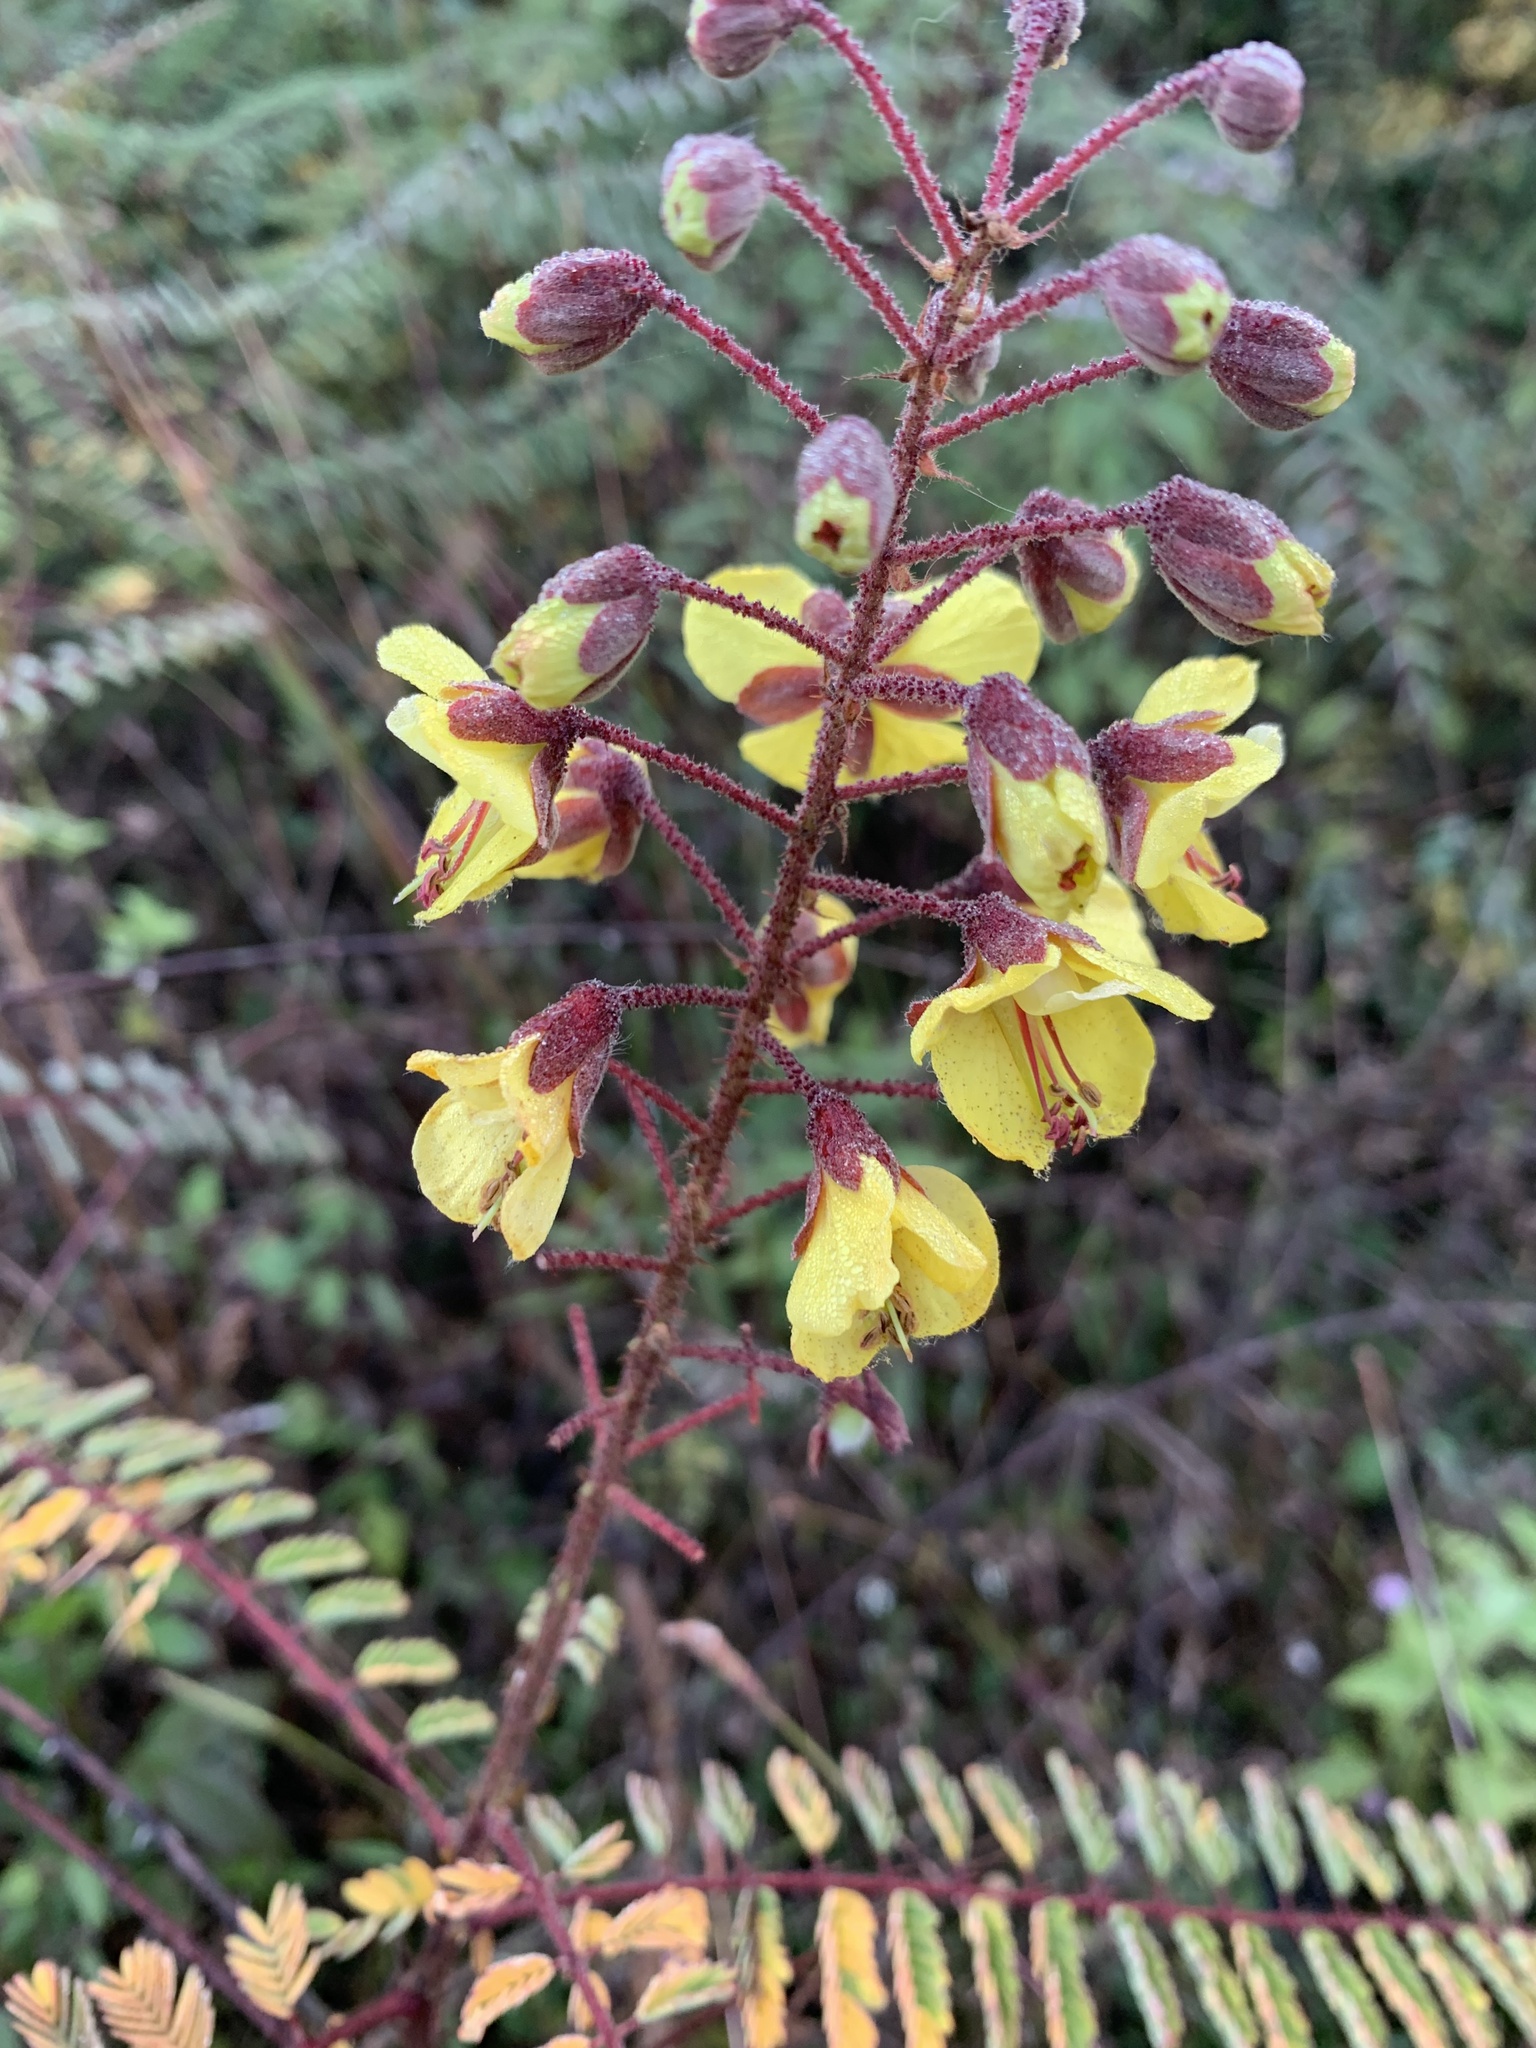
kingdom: Plantae
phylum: Tracheophyta
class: Magnoliopsida
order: Fabales
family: Fabaceae
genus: Hultholia
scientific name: Hultholia mimosoides
